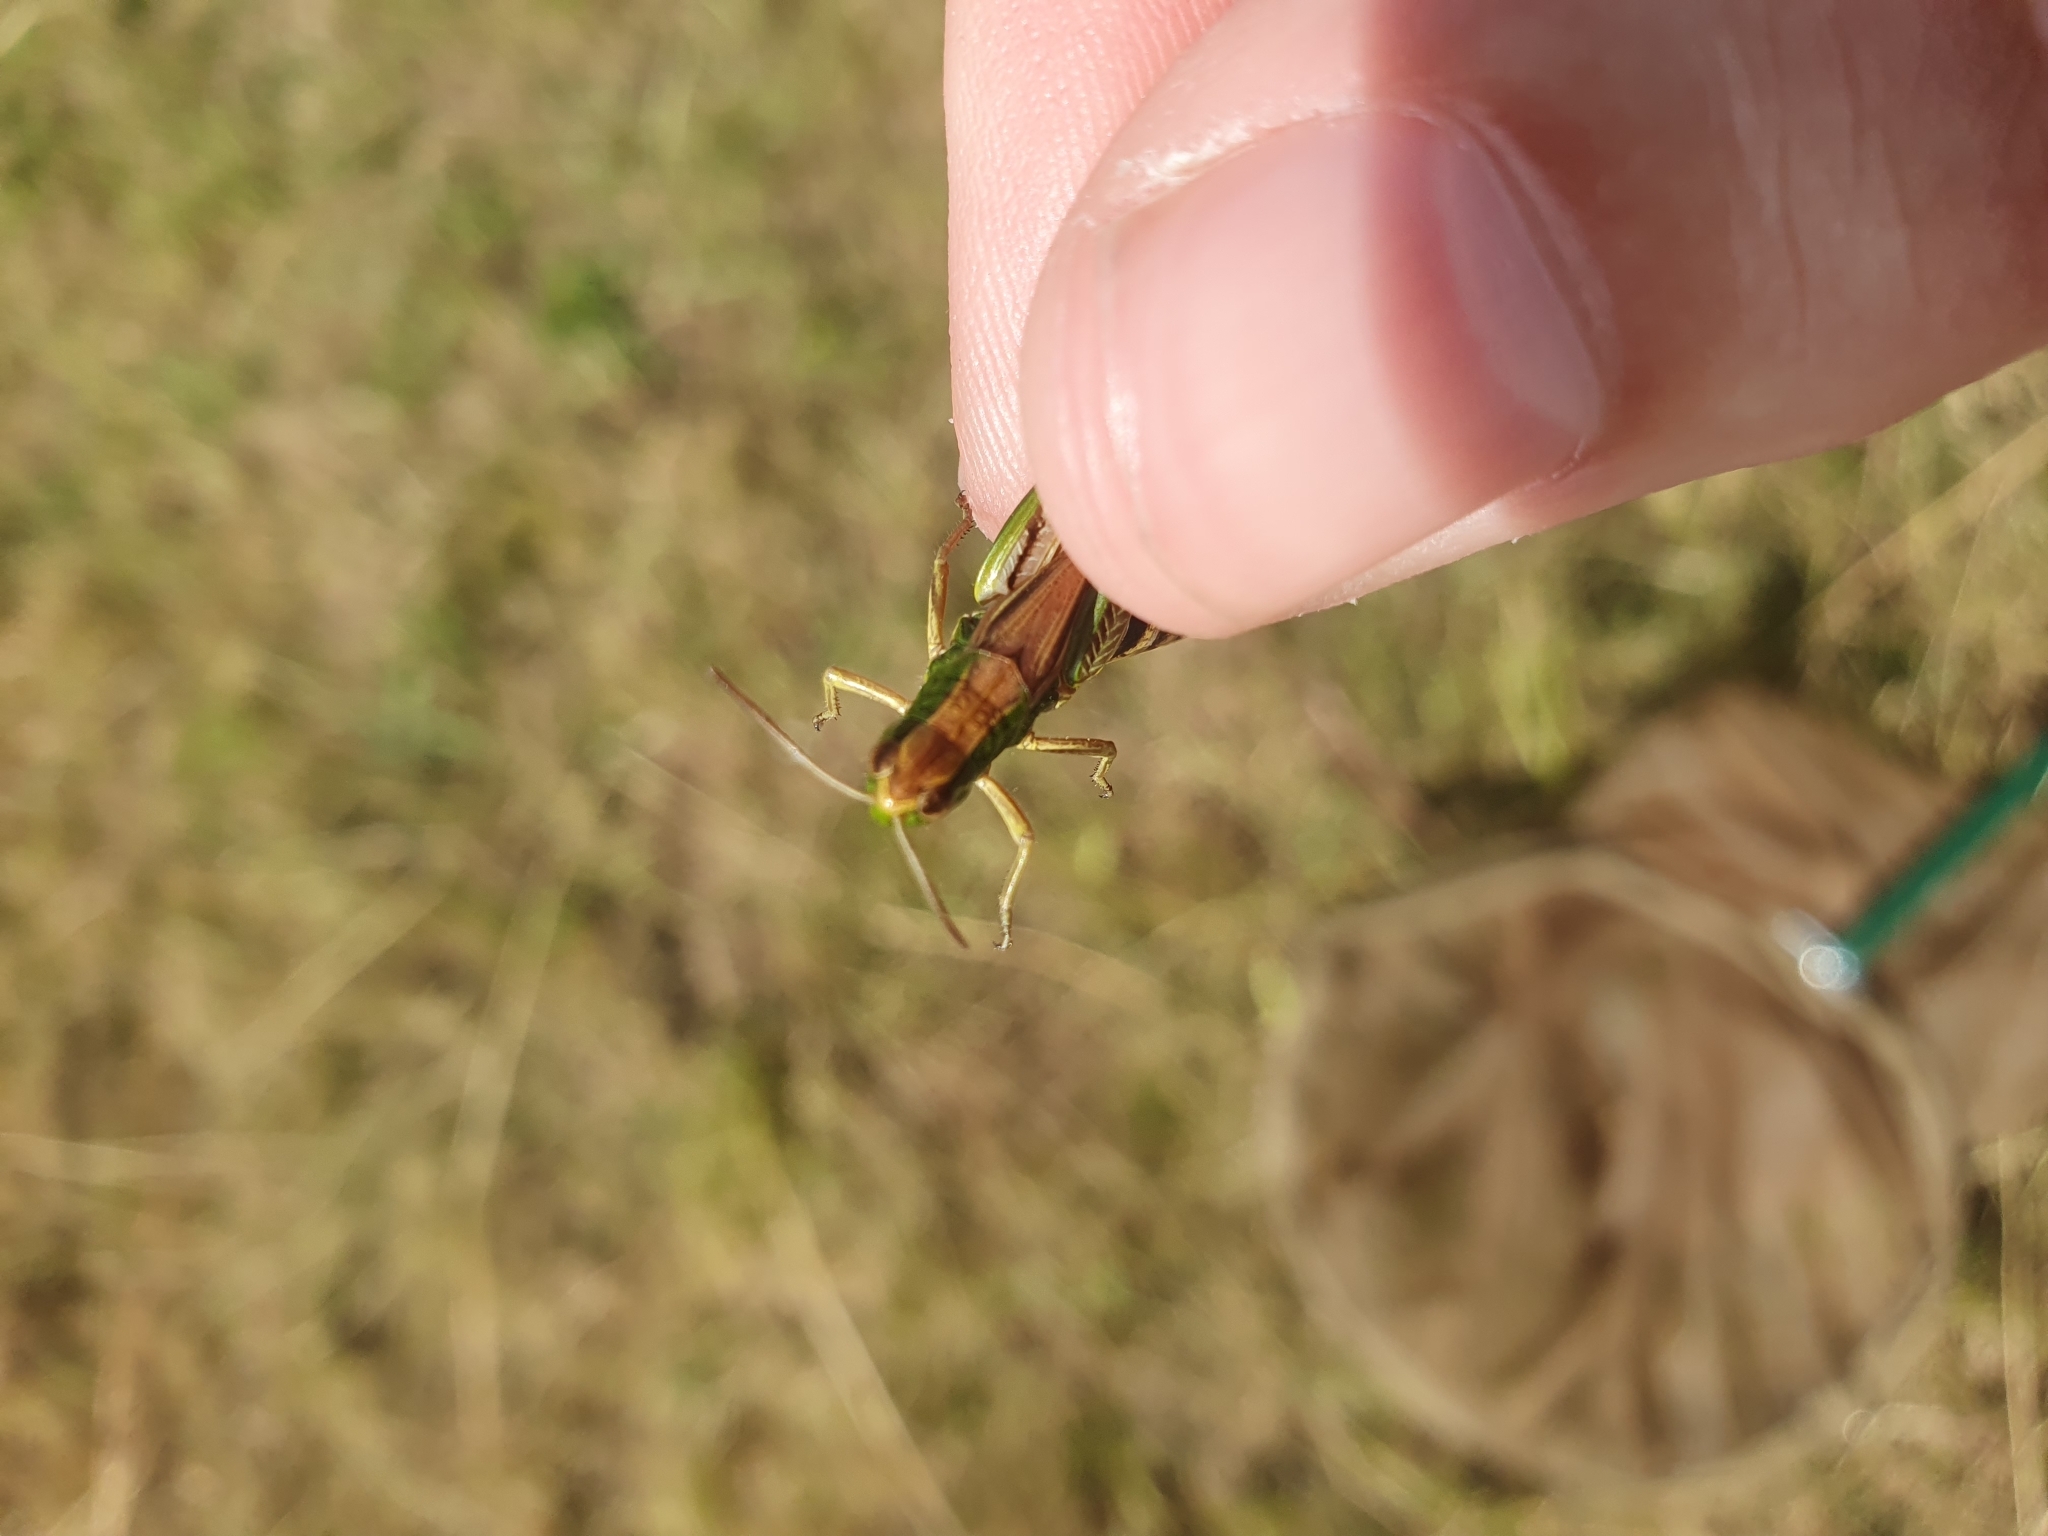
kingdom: Animalia
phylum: Arthropoda
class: Insecta
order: Orthoptera
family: Acrididae
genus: Pseudochorthippus
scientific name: Pseudochorthippus parallelus
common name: Meadow grasshopper
